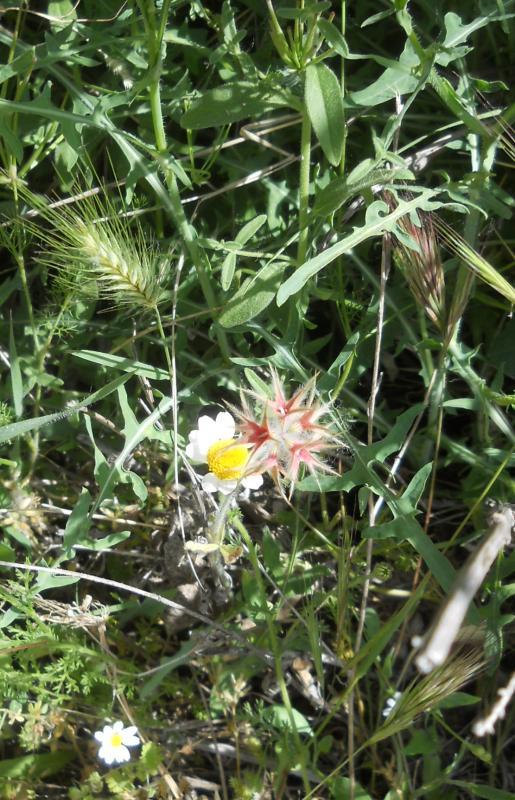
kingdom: Plantae
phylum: Tracheophyta
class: Magnoliopsida
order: Fabales
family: Fabaceae
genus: Trifolium
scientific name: Trifolium stellatum
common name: Starry clover
